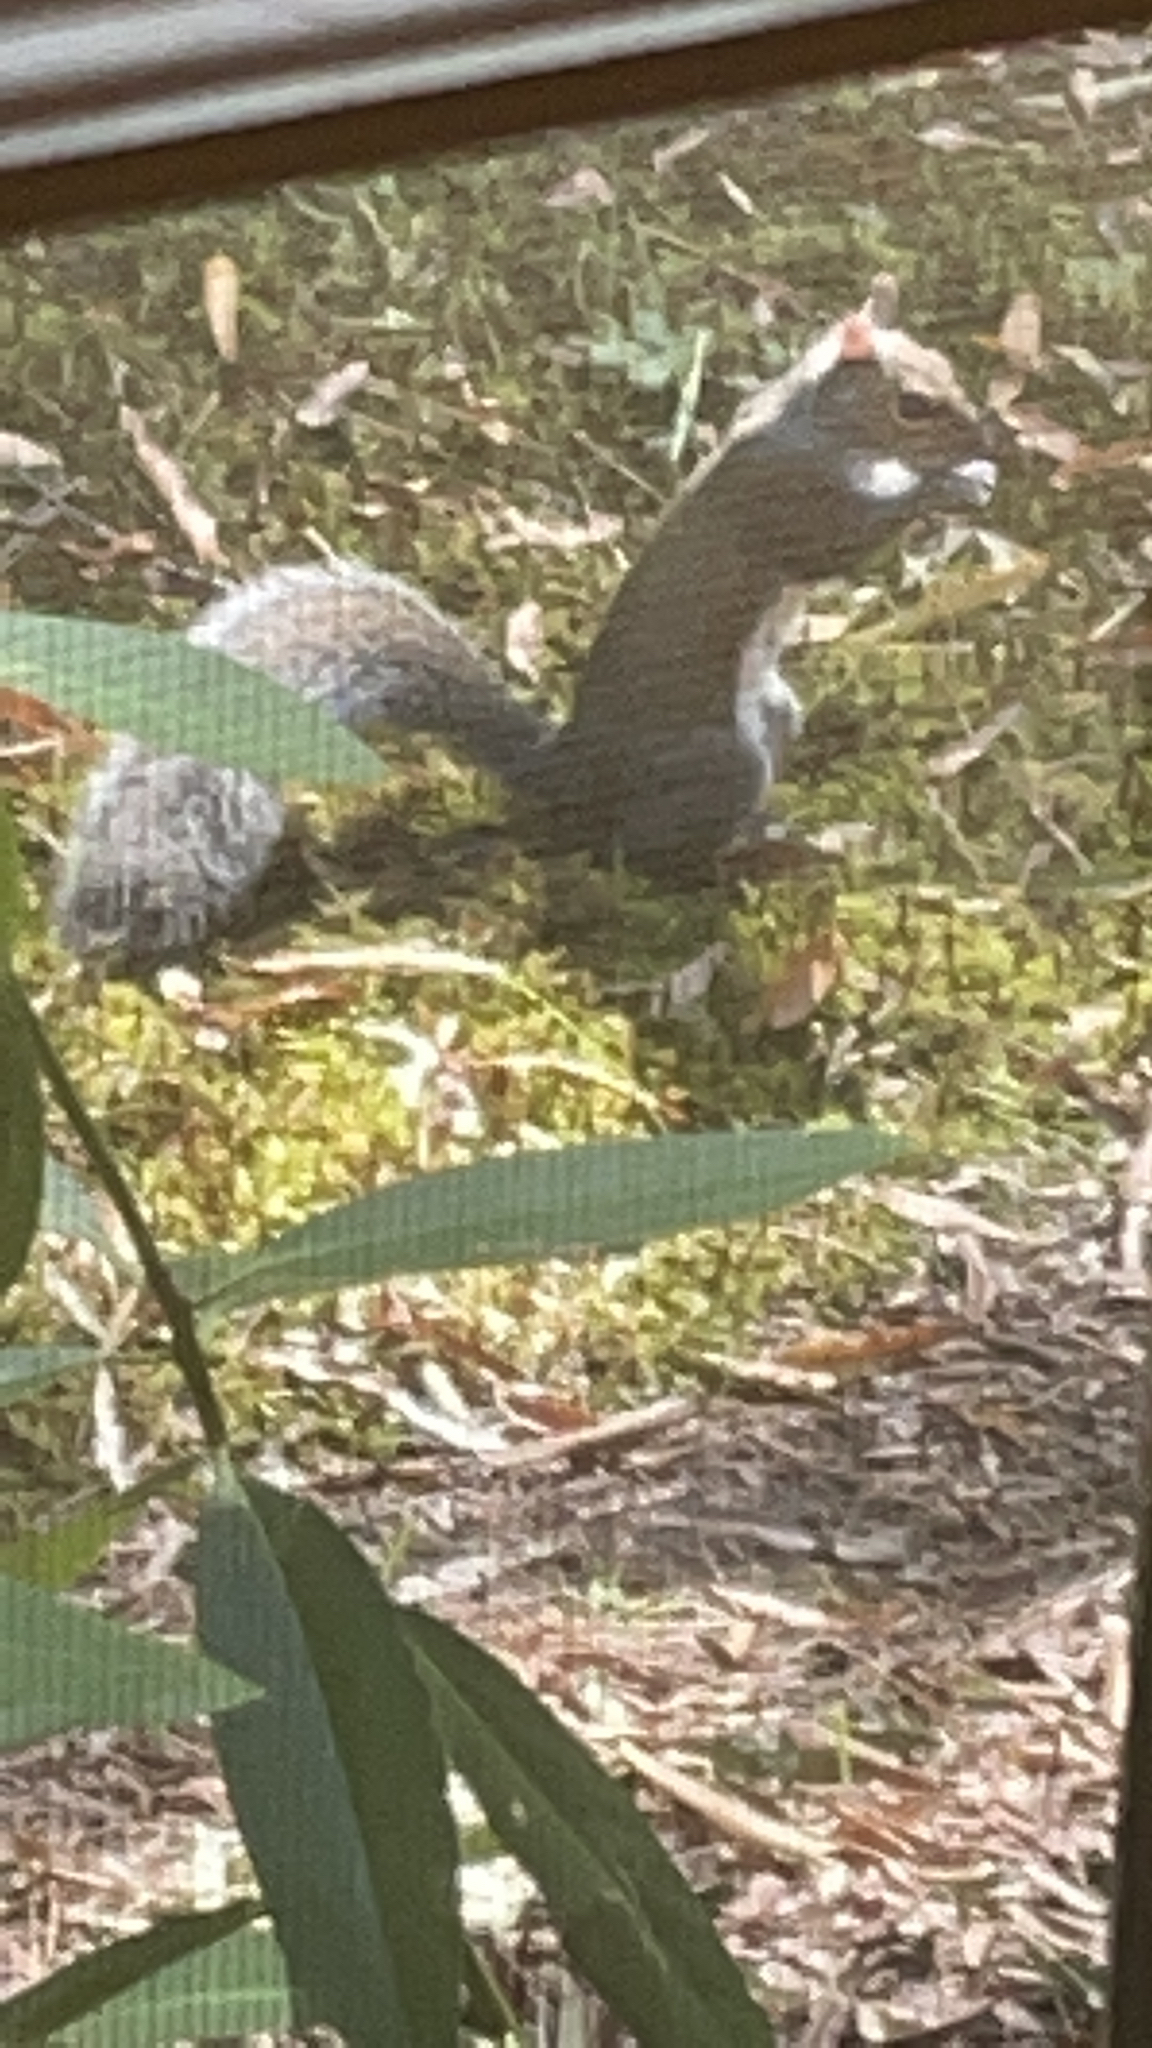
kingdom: Animalia
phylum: Chordata
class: Mammalia
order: Rodentia
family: Sciuridae
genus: Sciurus
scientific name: Sciurus carolinensis
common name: Eastern gray squirrel
